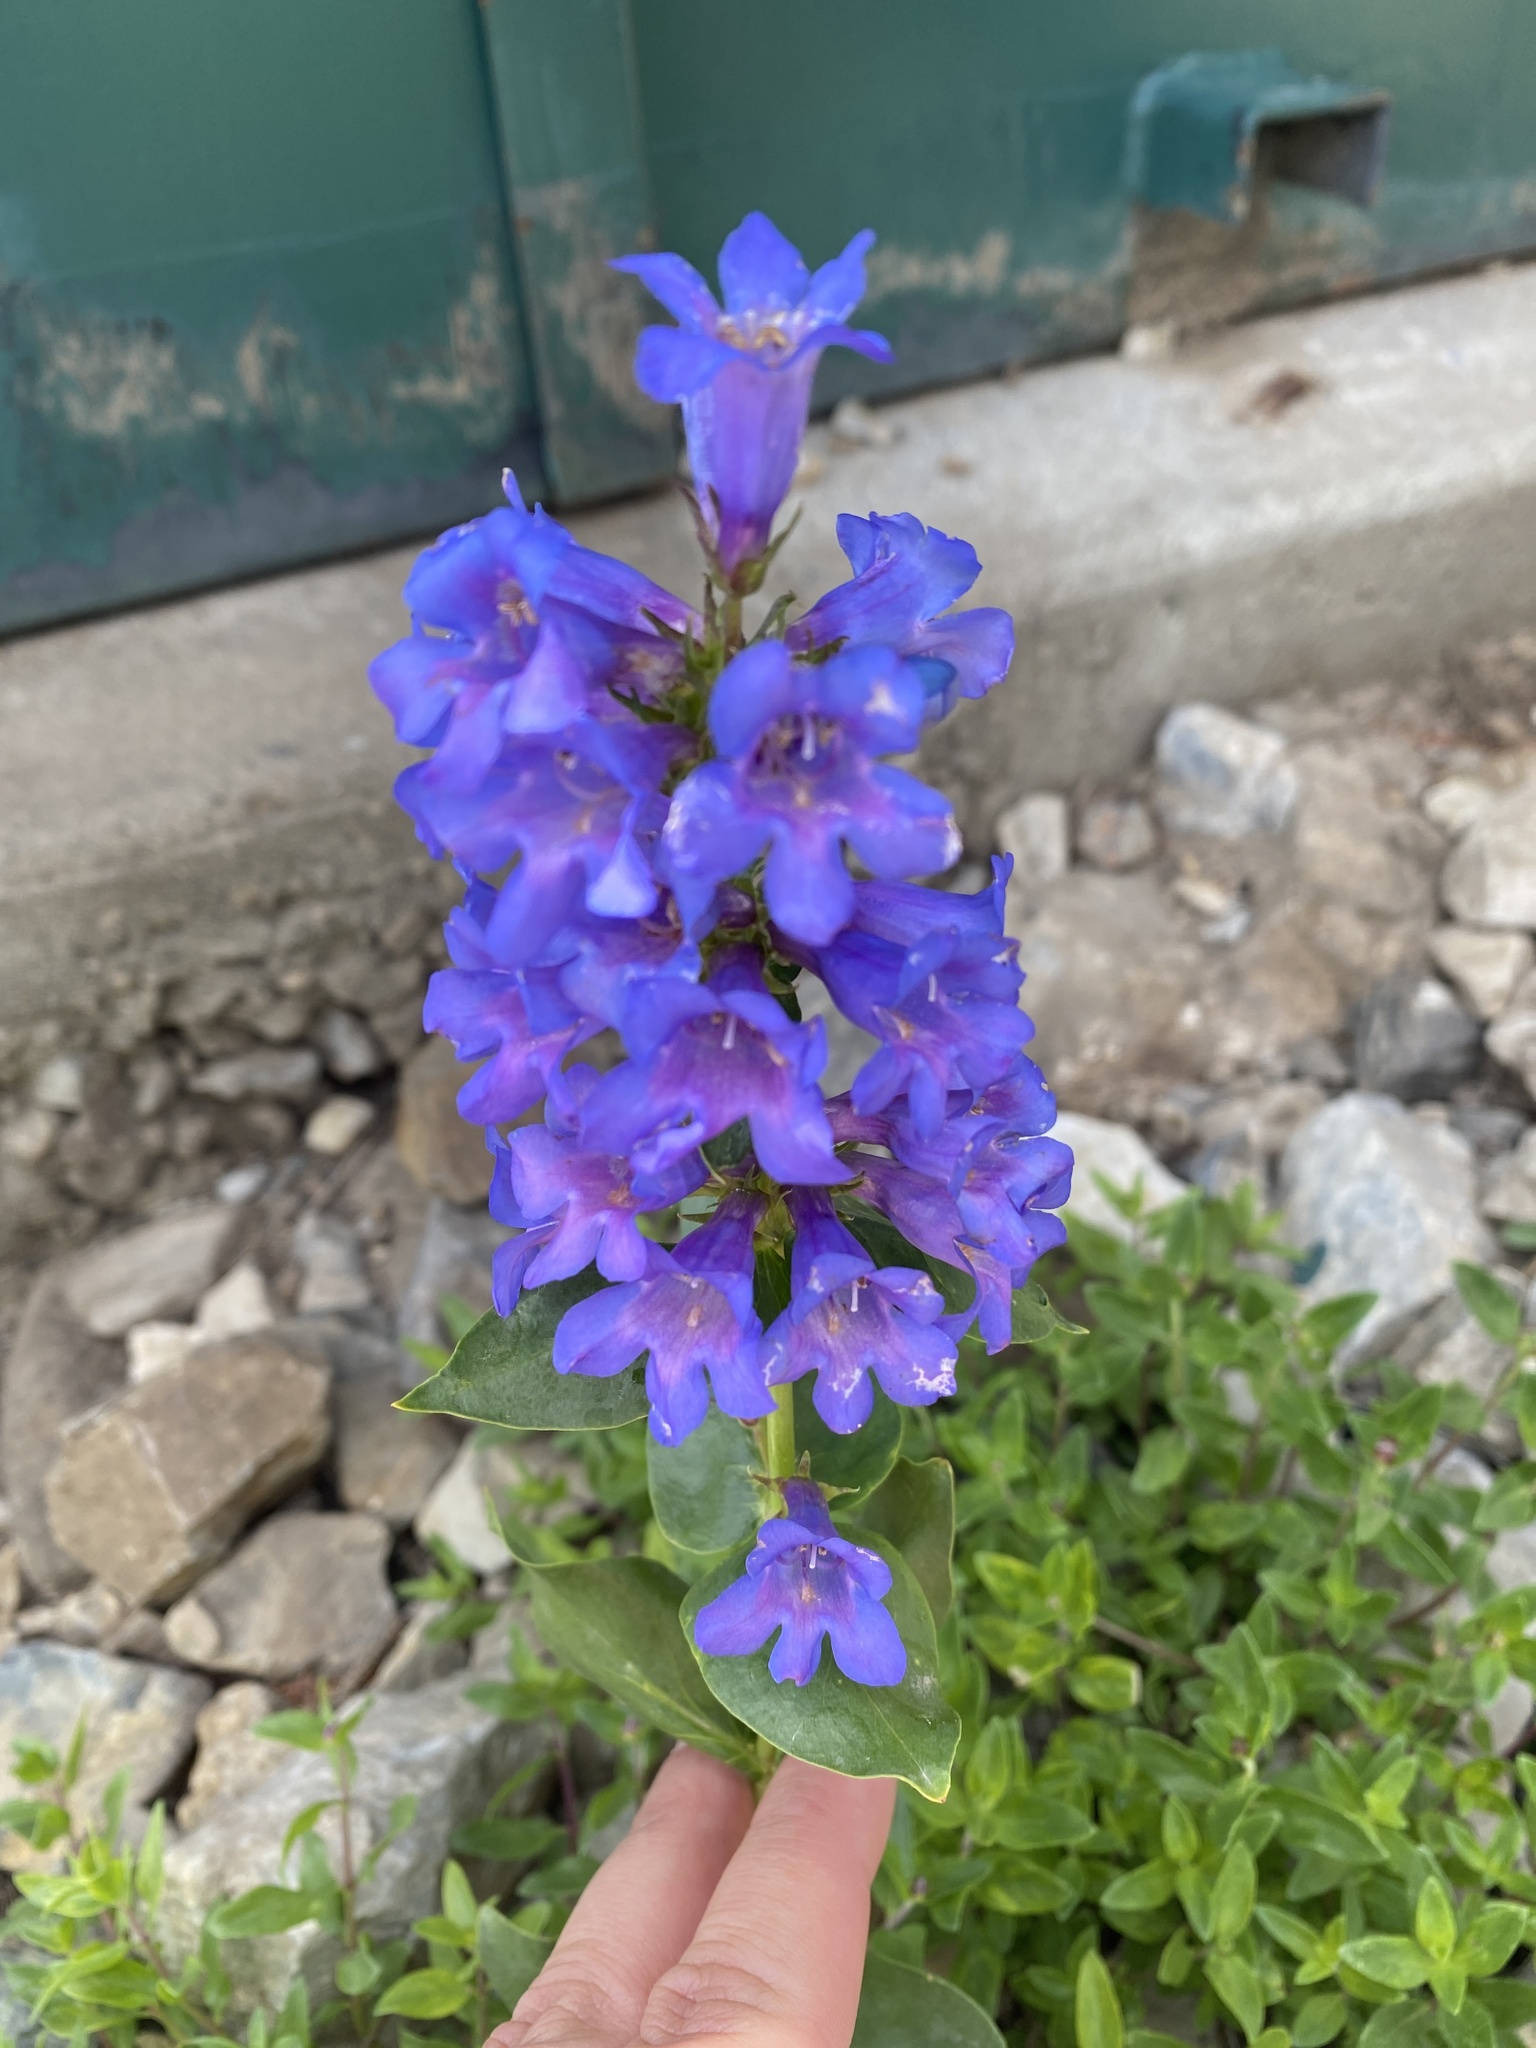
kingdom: Plantae
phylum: Tracheophyta
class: Magnoliopsida
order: Lamiales
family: Plantaginaceae
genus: Penstemon
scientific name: Penstemon cyananthus
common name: Wasatch penstemon
